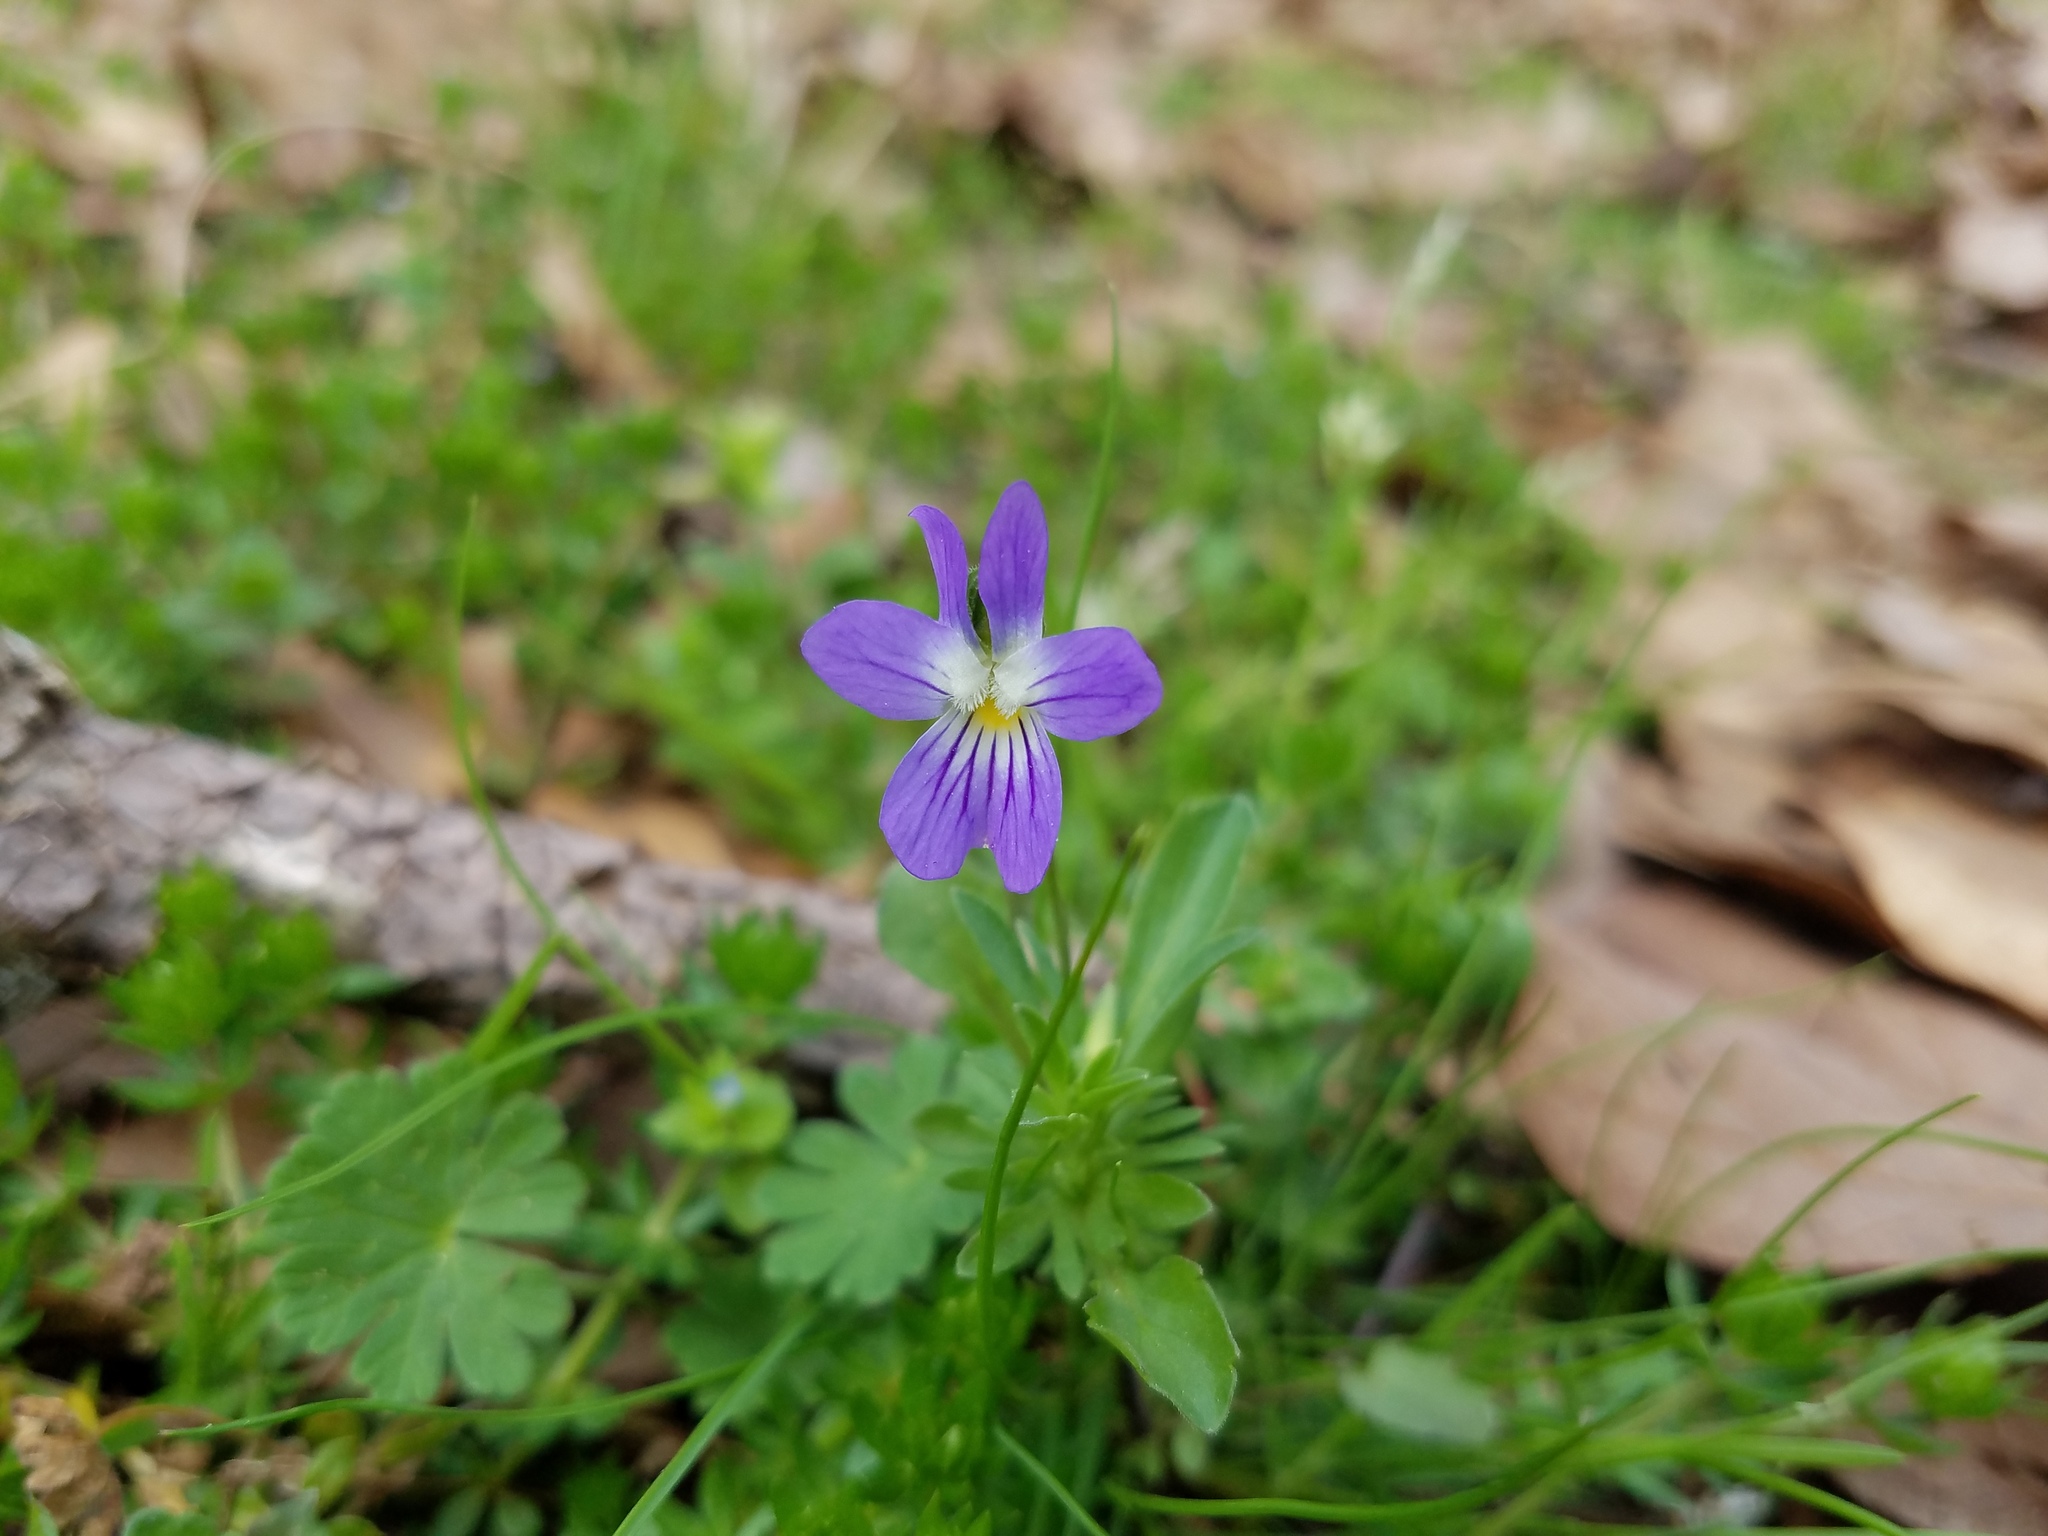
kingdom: Plantae
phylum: Tracheophyta
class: Magnoliopsida
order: Malpighiales
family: Violaceae
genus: Viola
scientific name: Viola rafinesquei
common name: American field pansy
